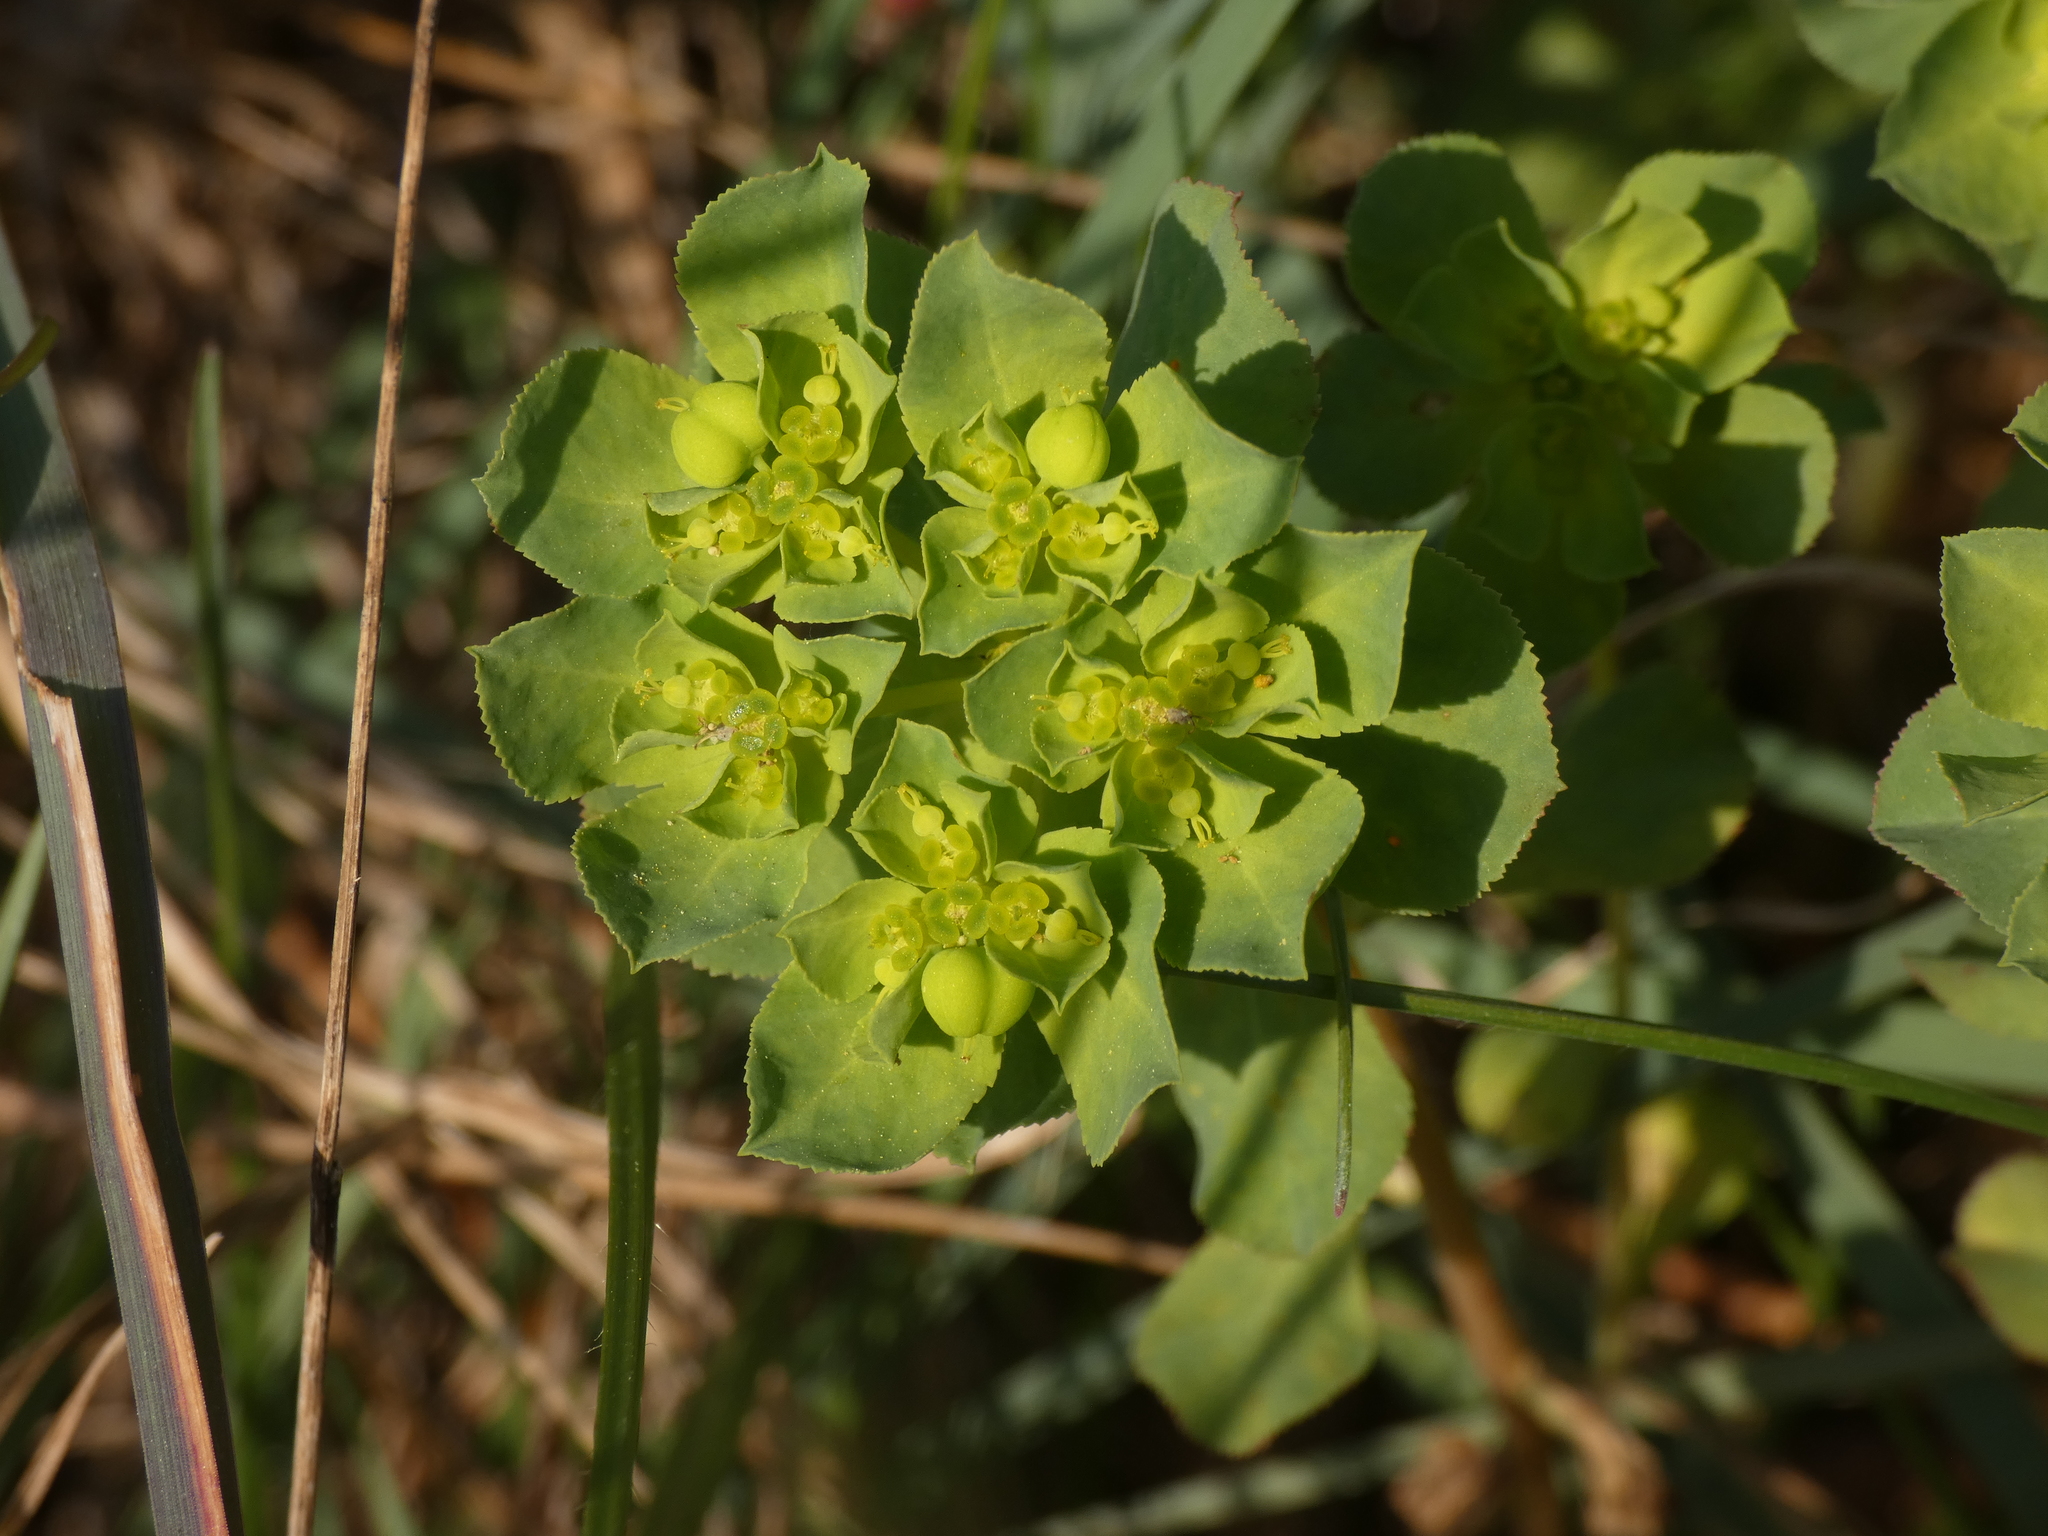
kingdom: Plantae
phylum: Tracheophyta
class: Magnoliopsida
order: Malpighiales
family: Euphorbiaceae
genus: Euphorbia
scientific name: Euphorbia helioscopia
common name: Sun spurge
